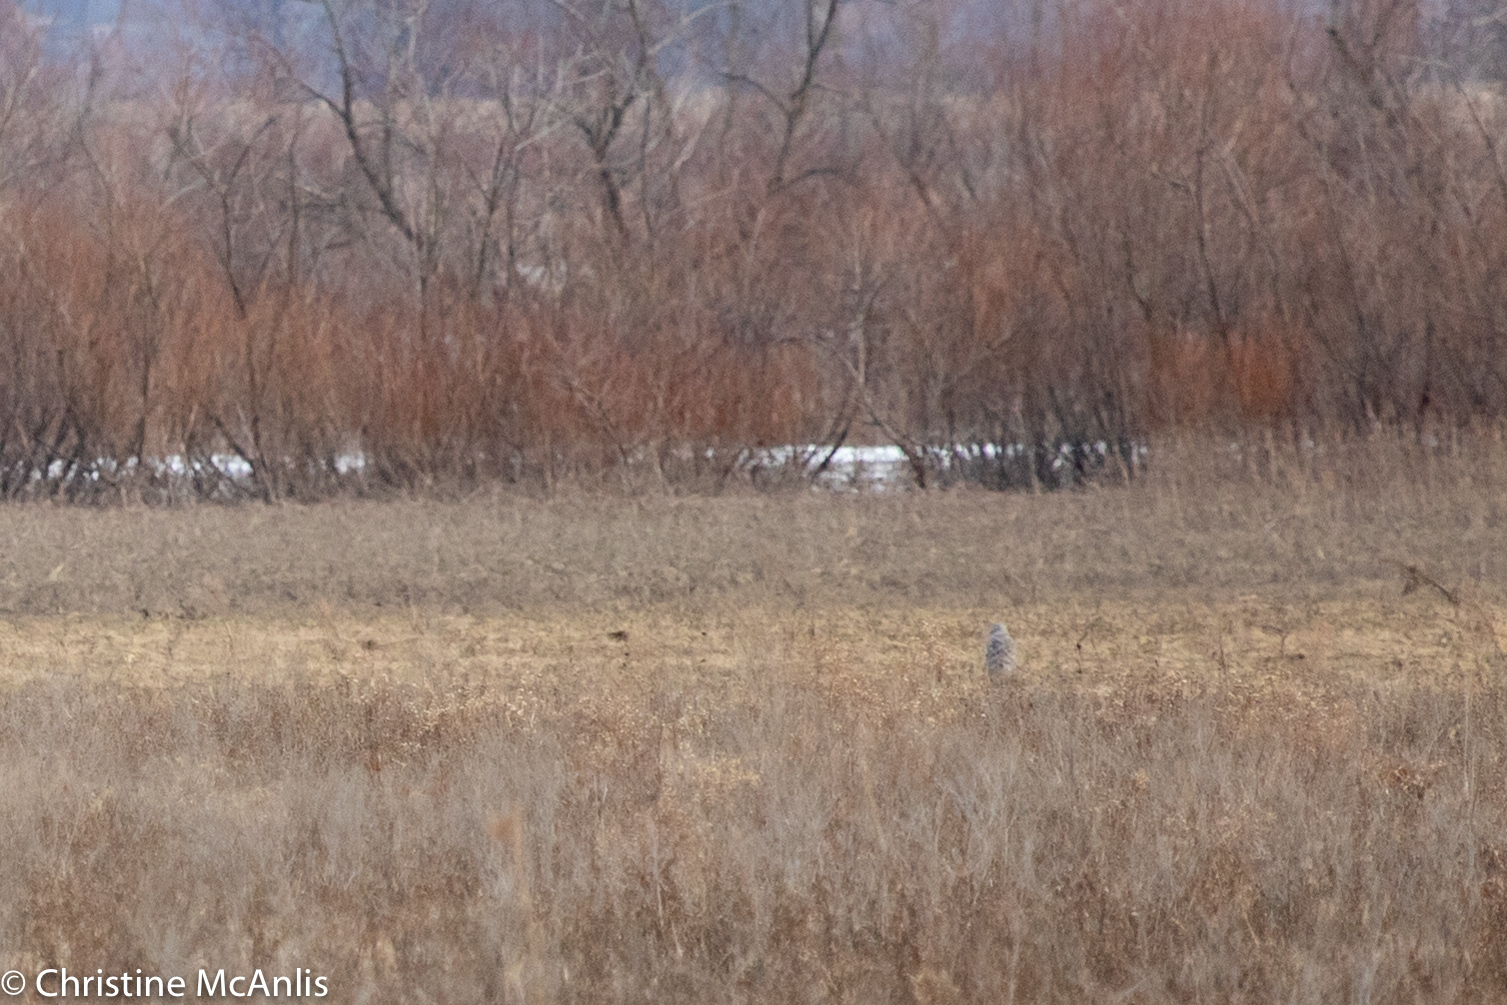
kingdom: Animalia
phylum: Chordata
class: Aves
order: Accipitriformes
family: Accipitridae
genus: Circus
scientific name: Circus cyaneus
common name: Hen harrier
